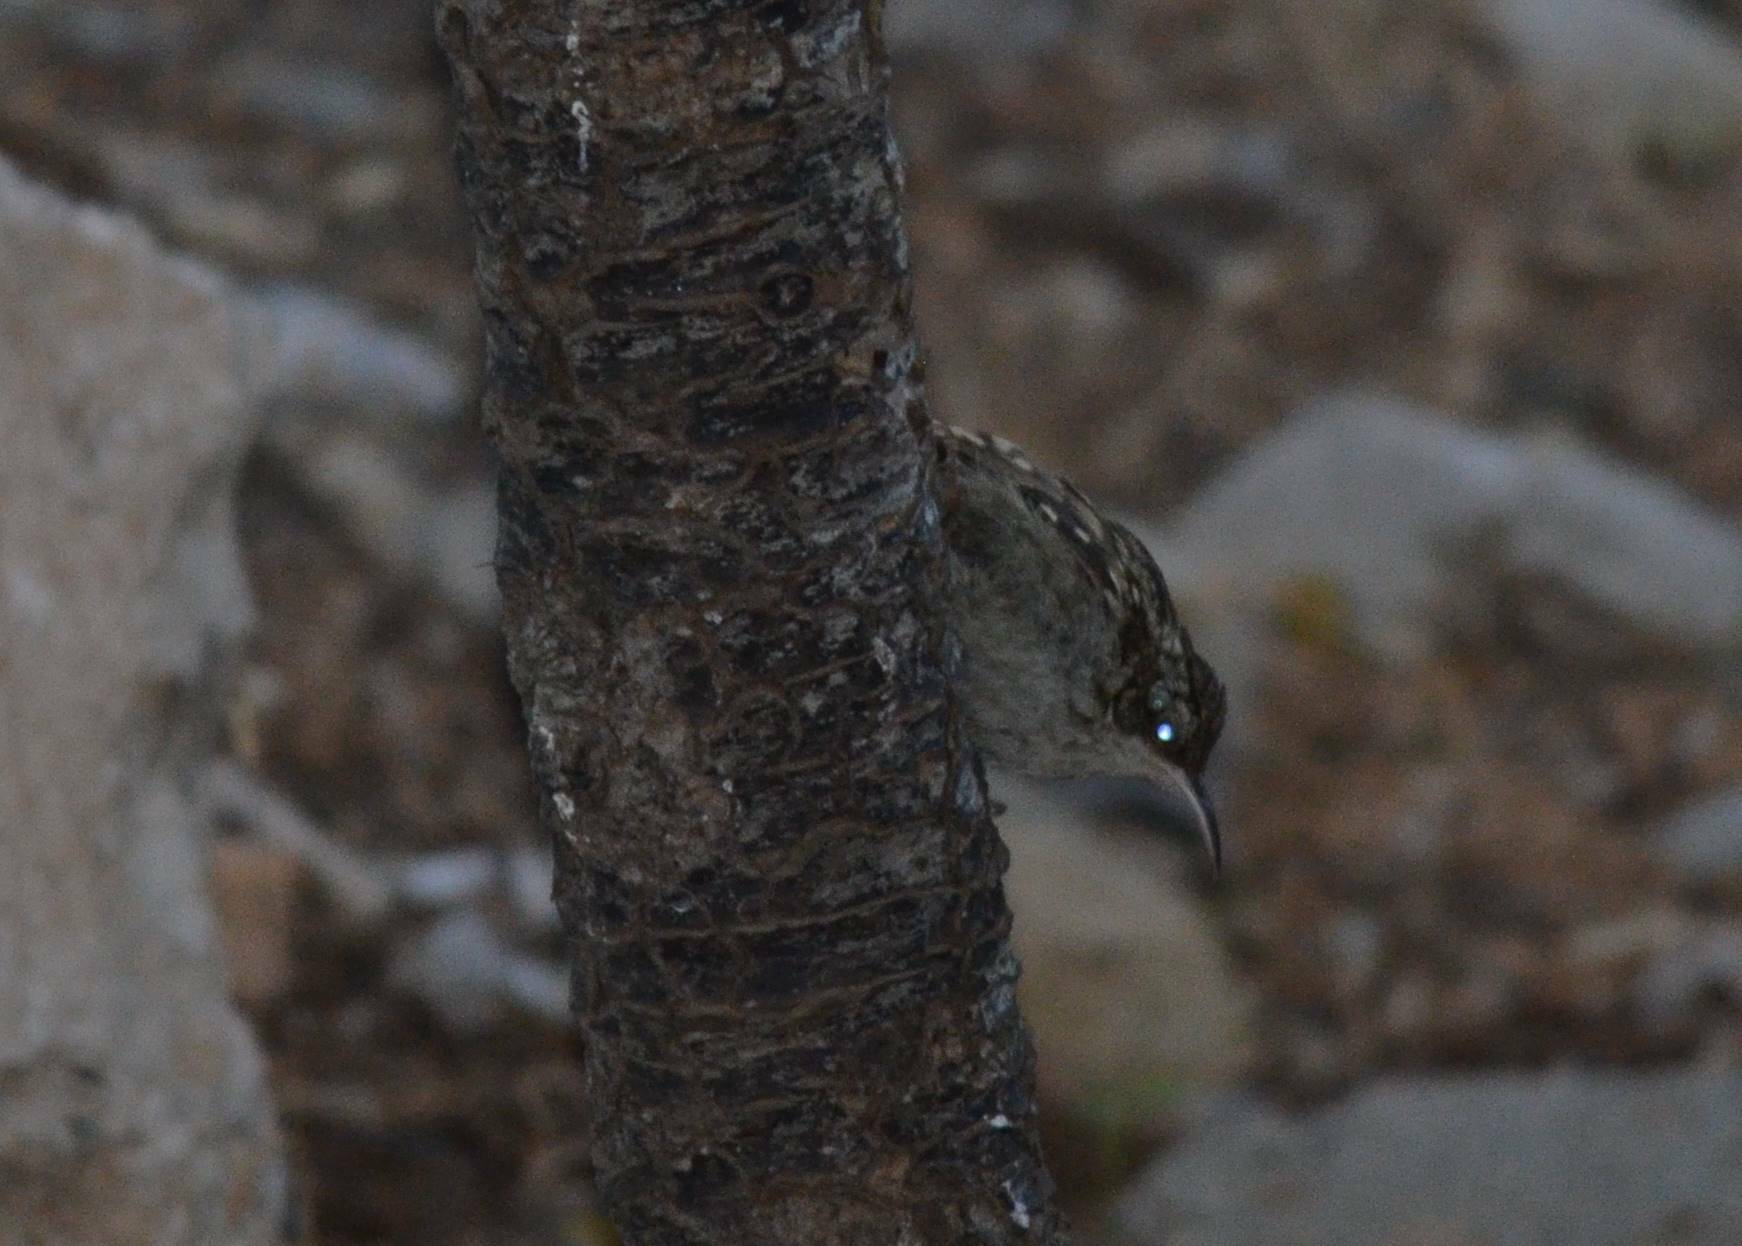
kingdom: Animalia
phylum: Chordata
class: Aves
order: Passeriformes
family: Certhiidae
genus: Certhia
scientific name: Certhia brachydactyla
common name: Short-toed treecreeper
